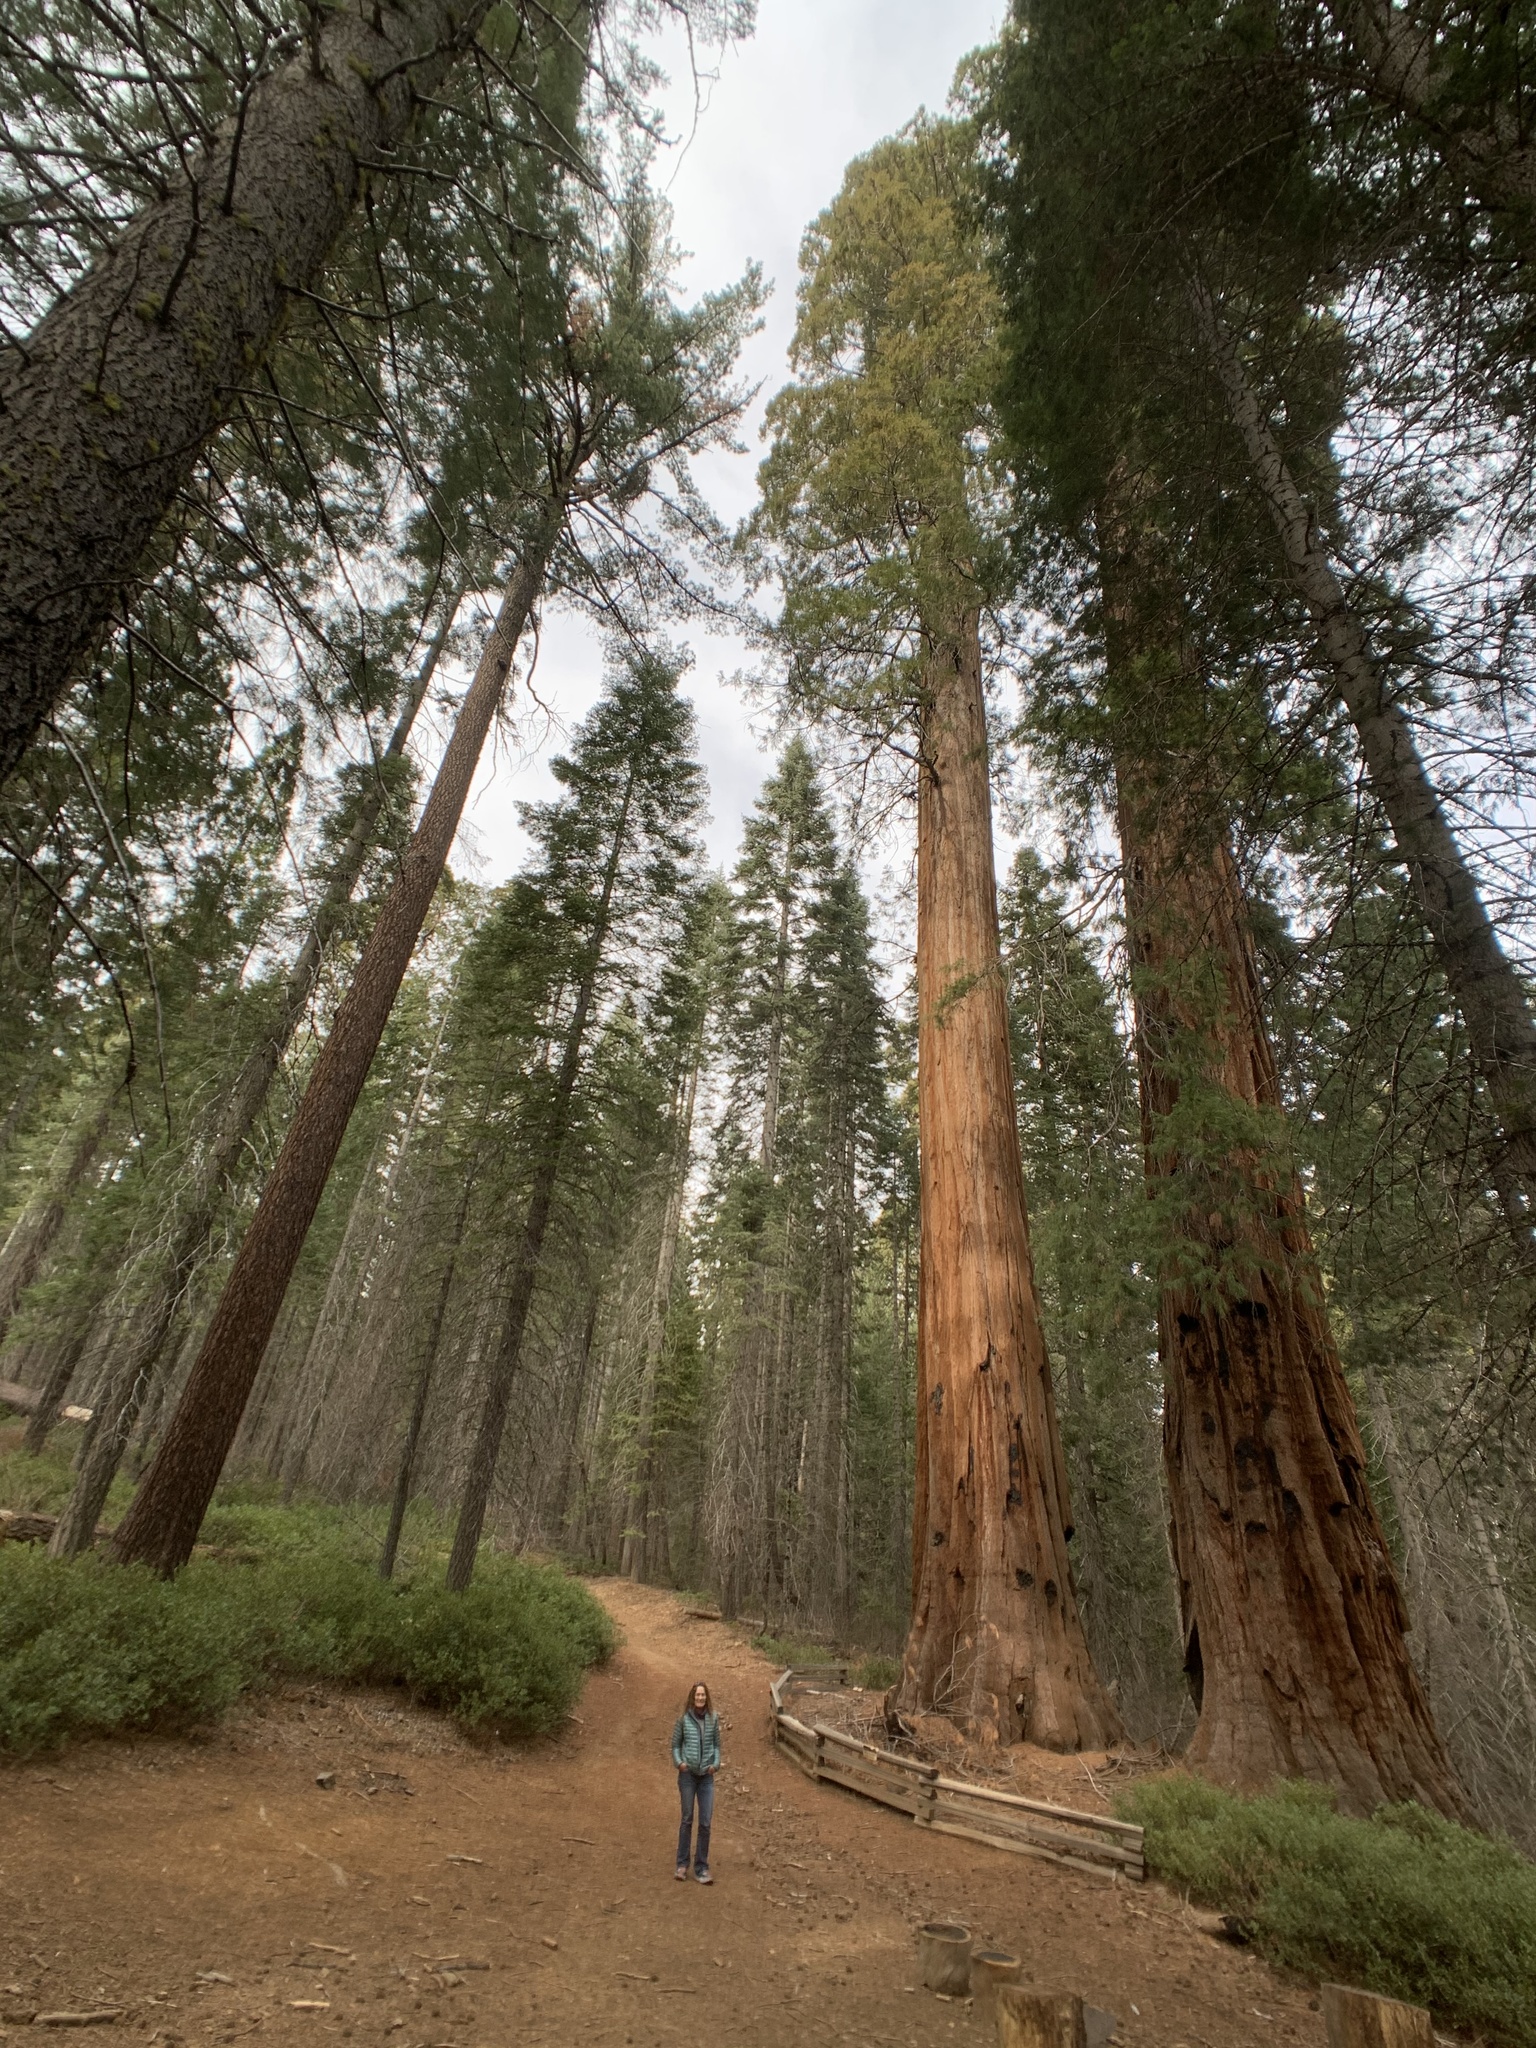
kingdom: Plantae
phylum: Tracheophyta
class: Pinopsida
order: Pinales
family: Cupressaceae
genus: Sequoiadendron
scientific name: Sequoiadendron giganteum
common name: Wellingtonia
